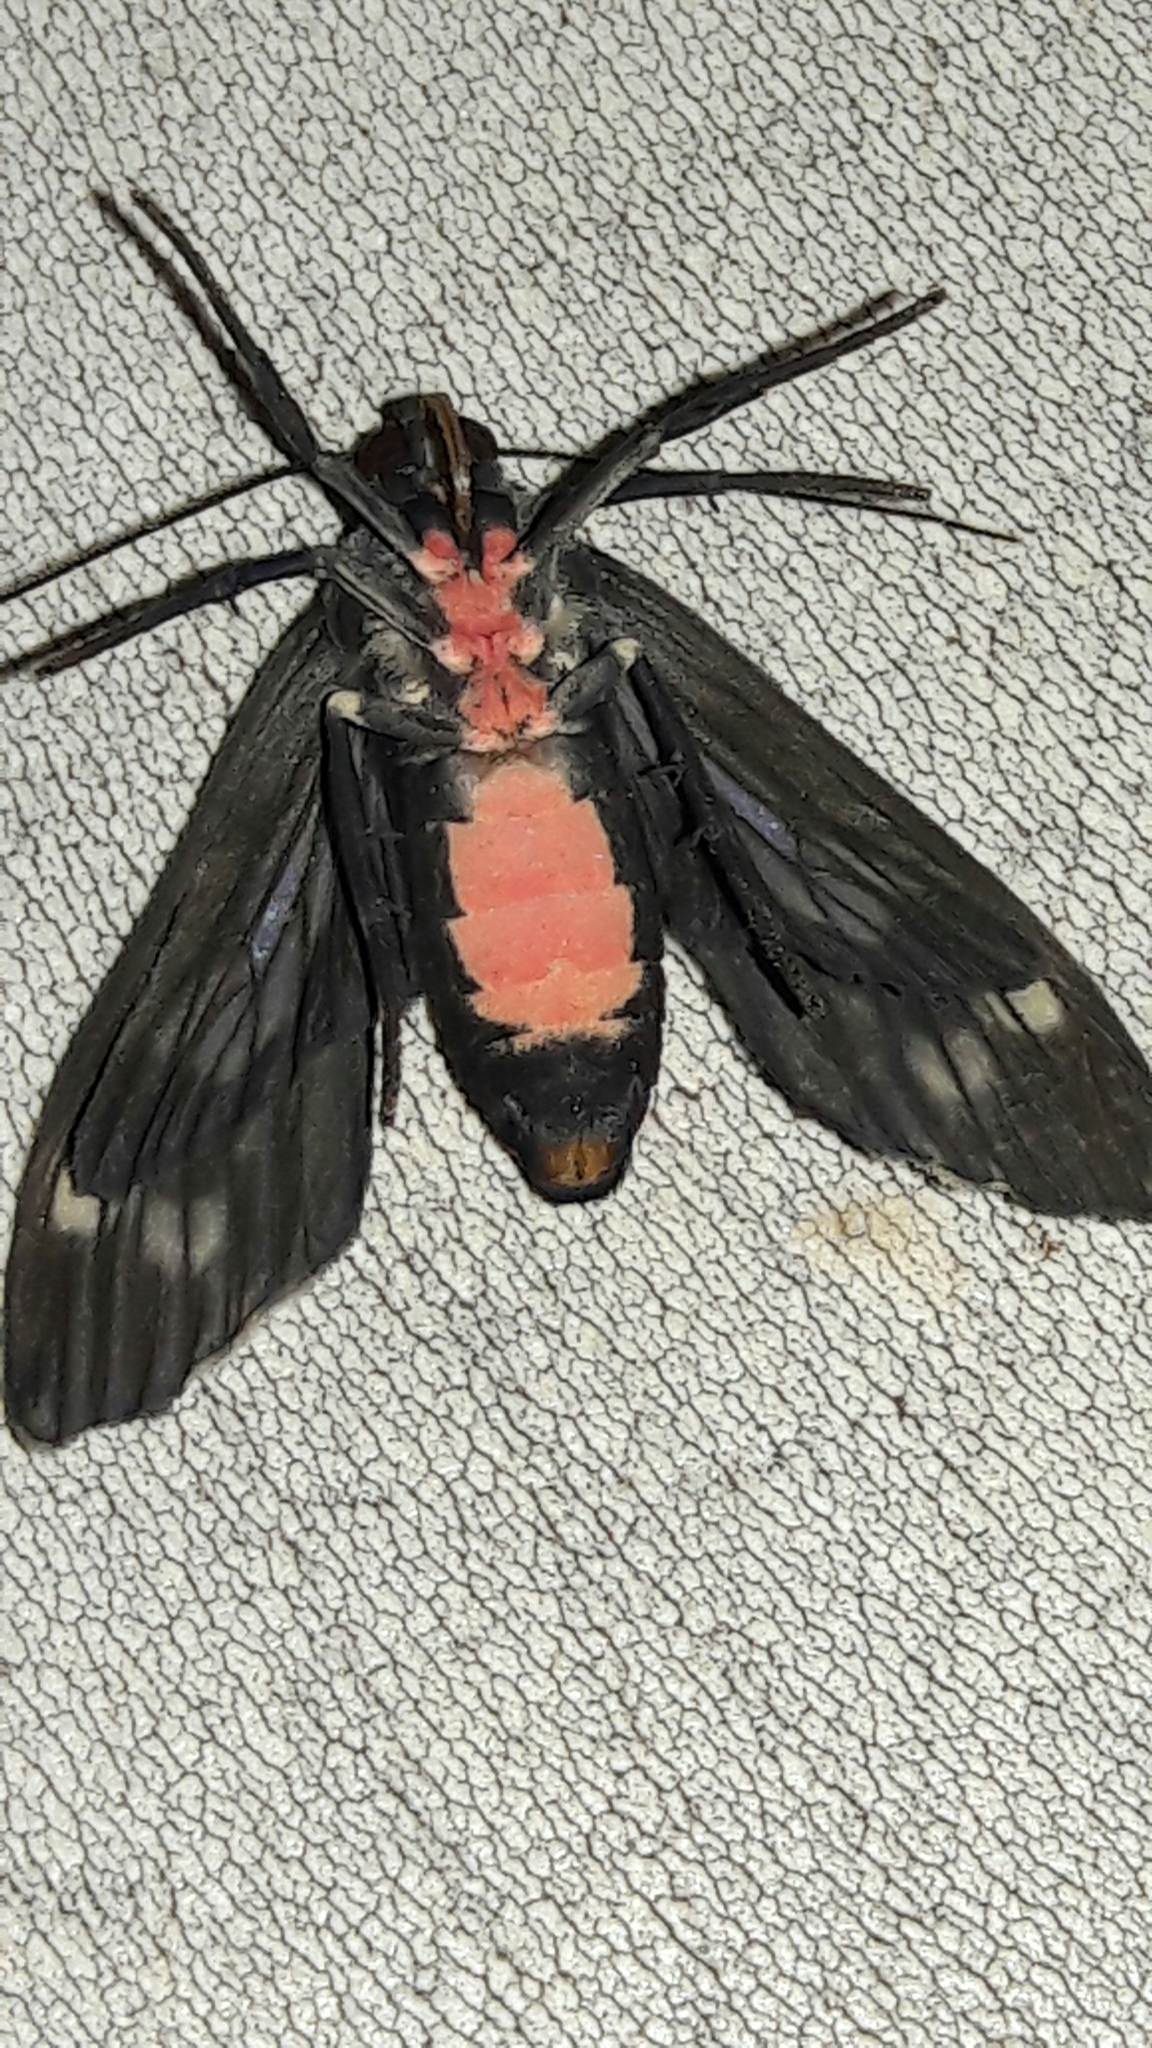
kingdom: Animalia
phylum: Arthropoda
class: Insecta
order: Lepidoptera
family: Erebidae
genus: Eucereon
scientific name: Eucereon sylvius
